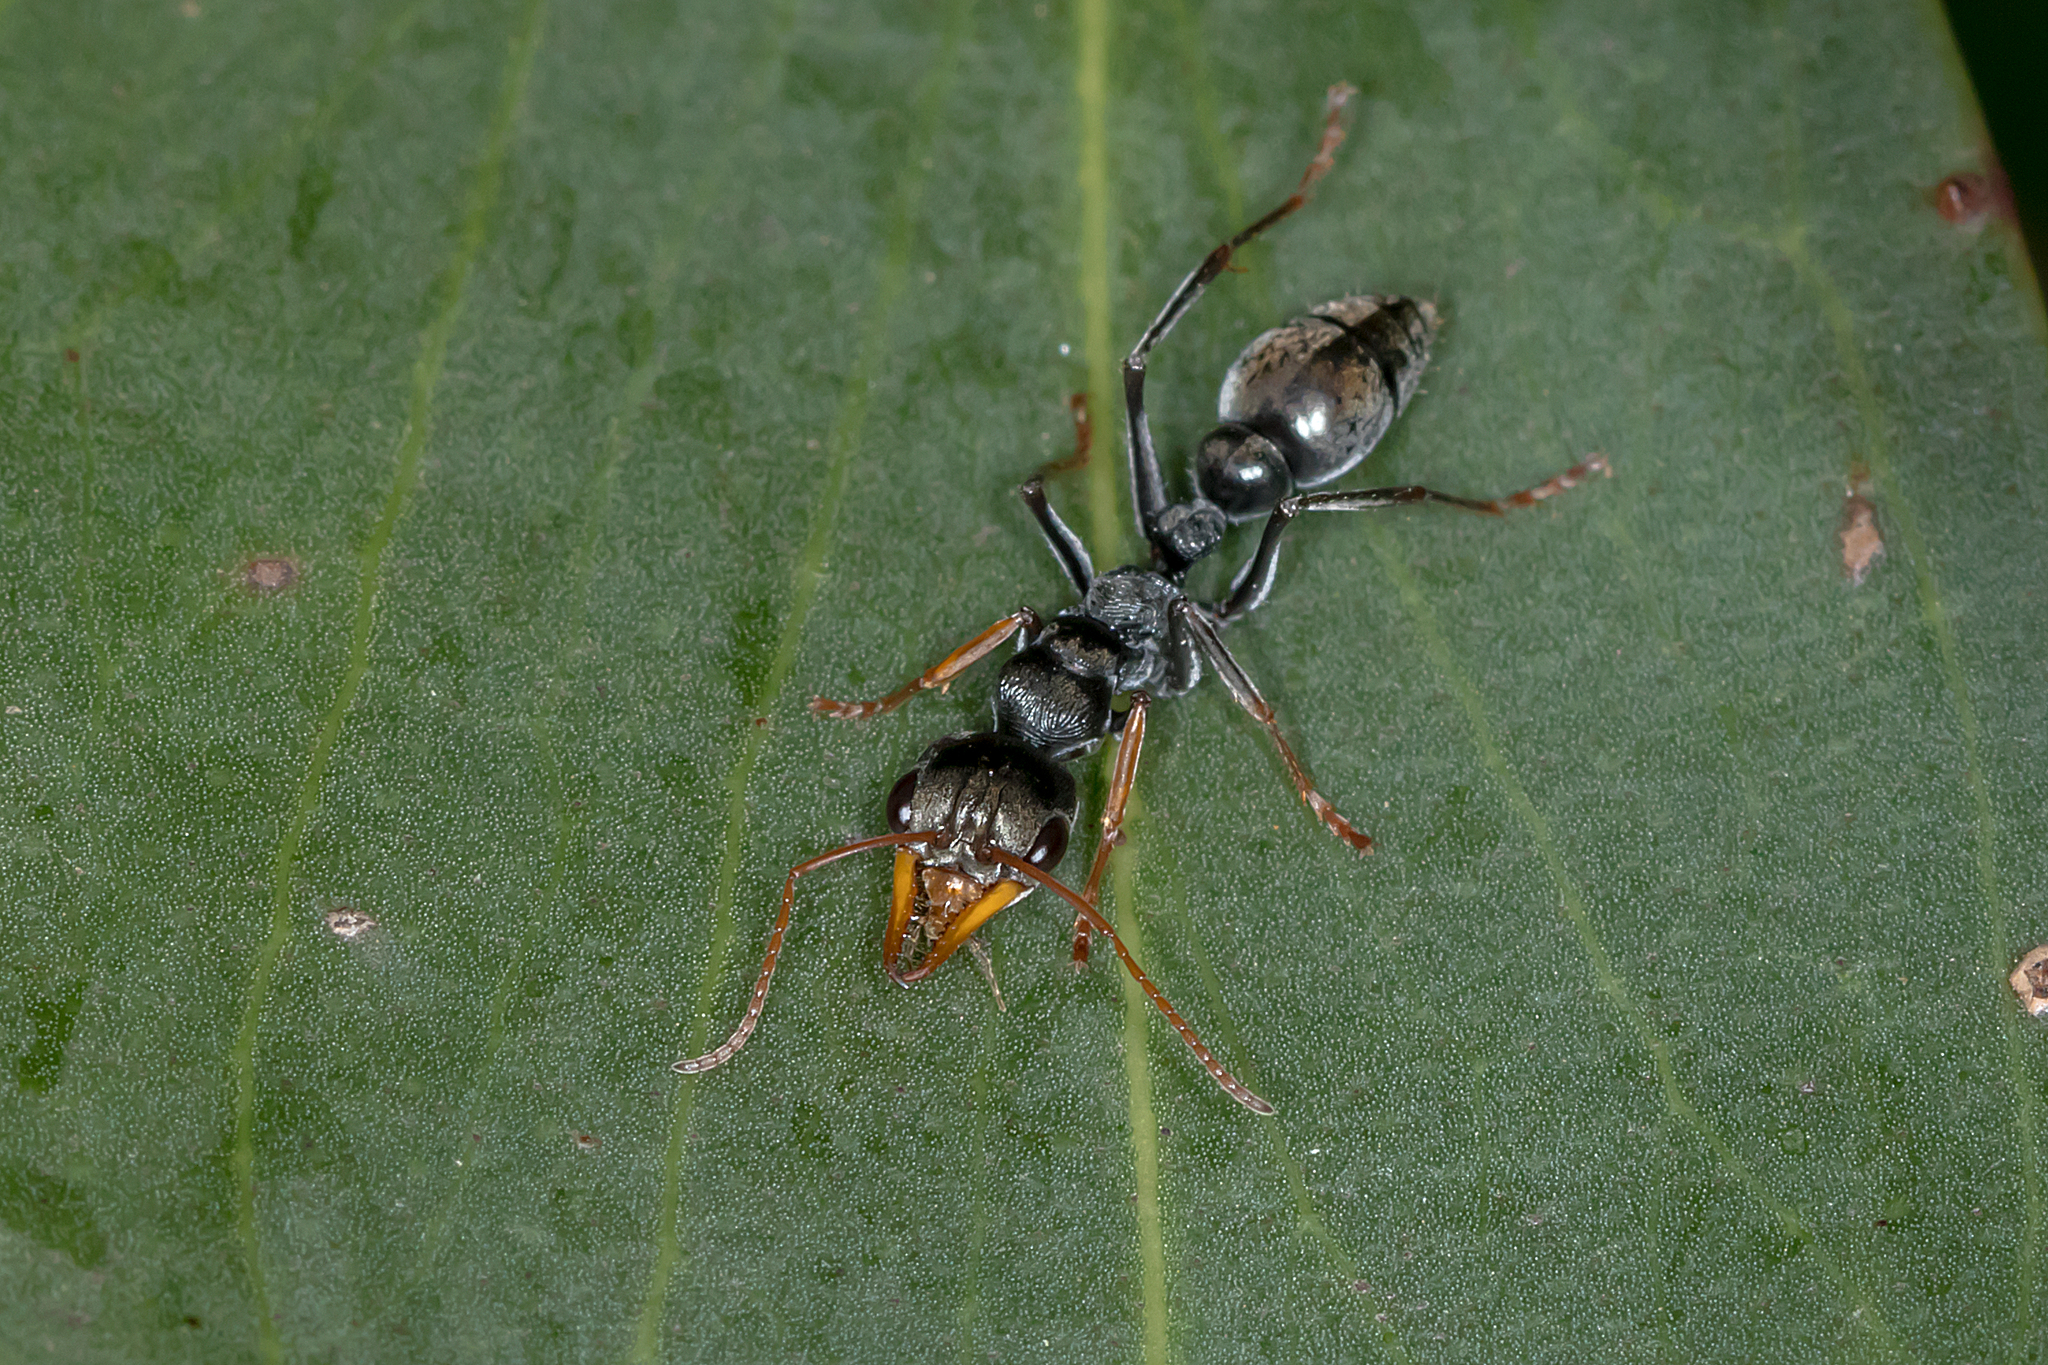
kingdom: Animalia
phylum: Arthropoda
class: Insecta
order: Hymenoptera
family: Formicidae
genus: Myrmecia
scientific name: Myrmecia pilosula
